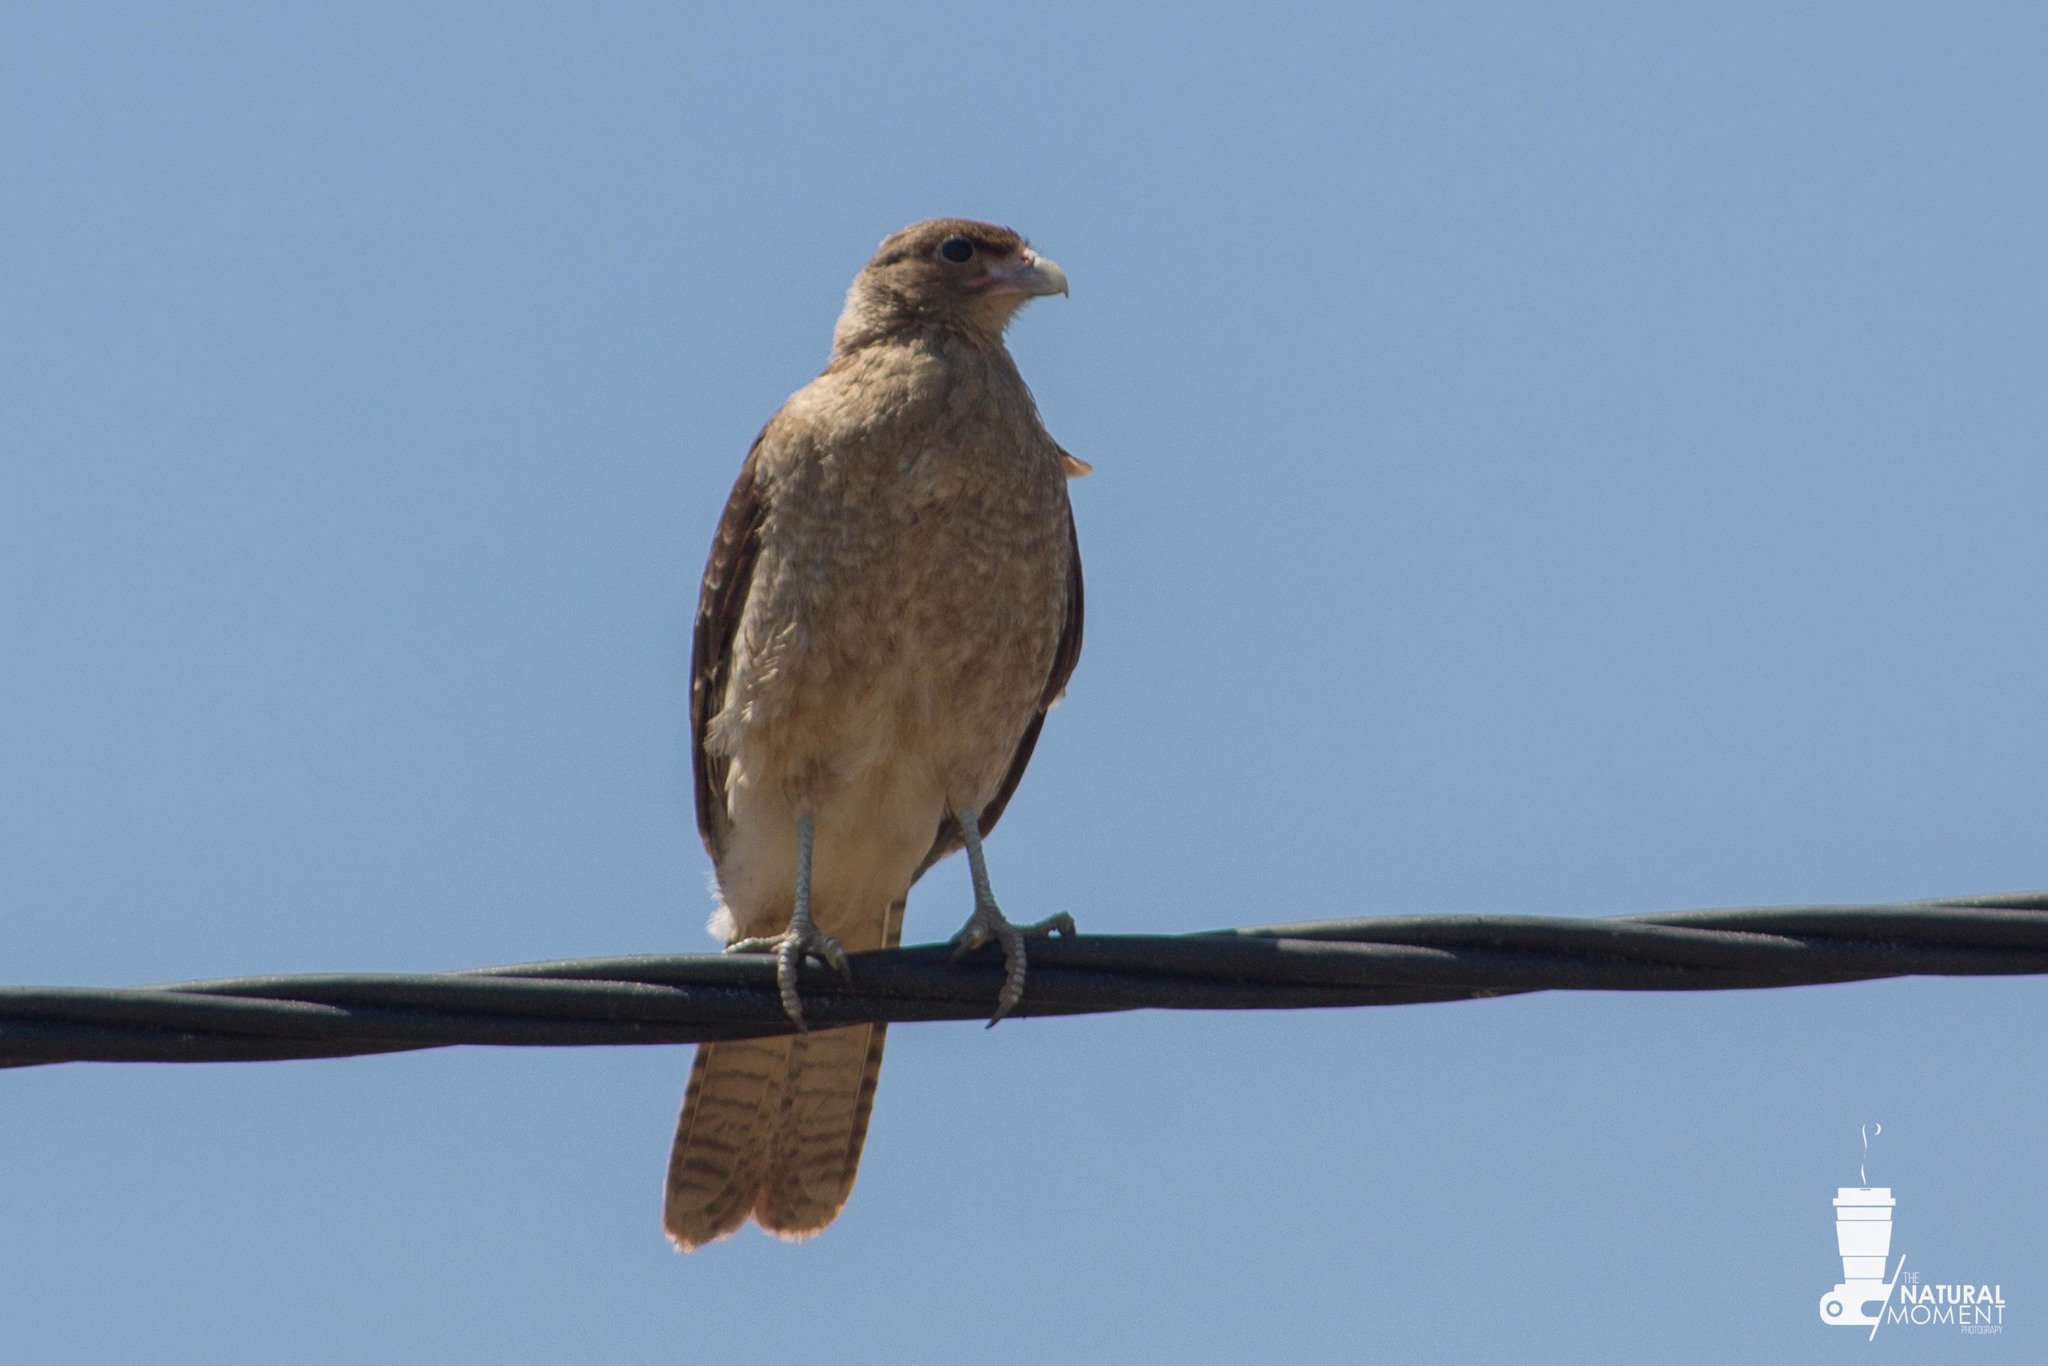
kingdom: Animalia
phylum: Chordata
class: Aves
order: Falconiformes
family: Falconidae
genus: Daptrius
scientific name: Daptrius
